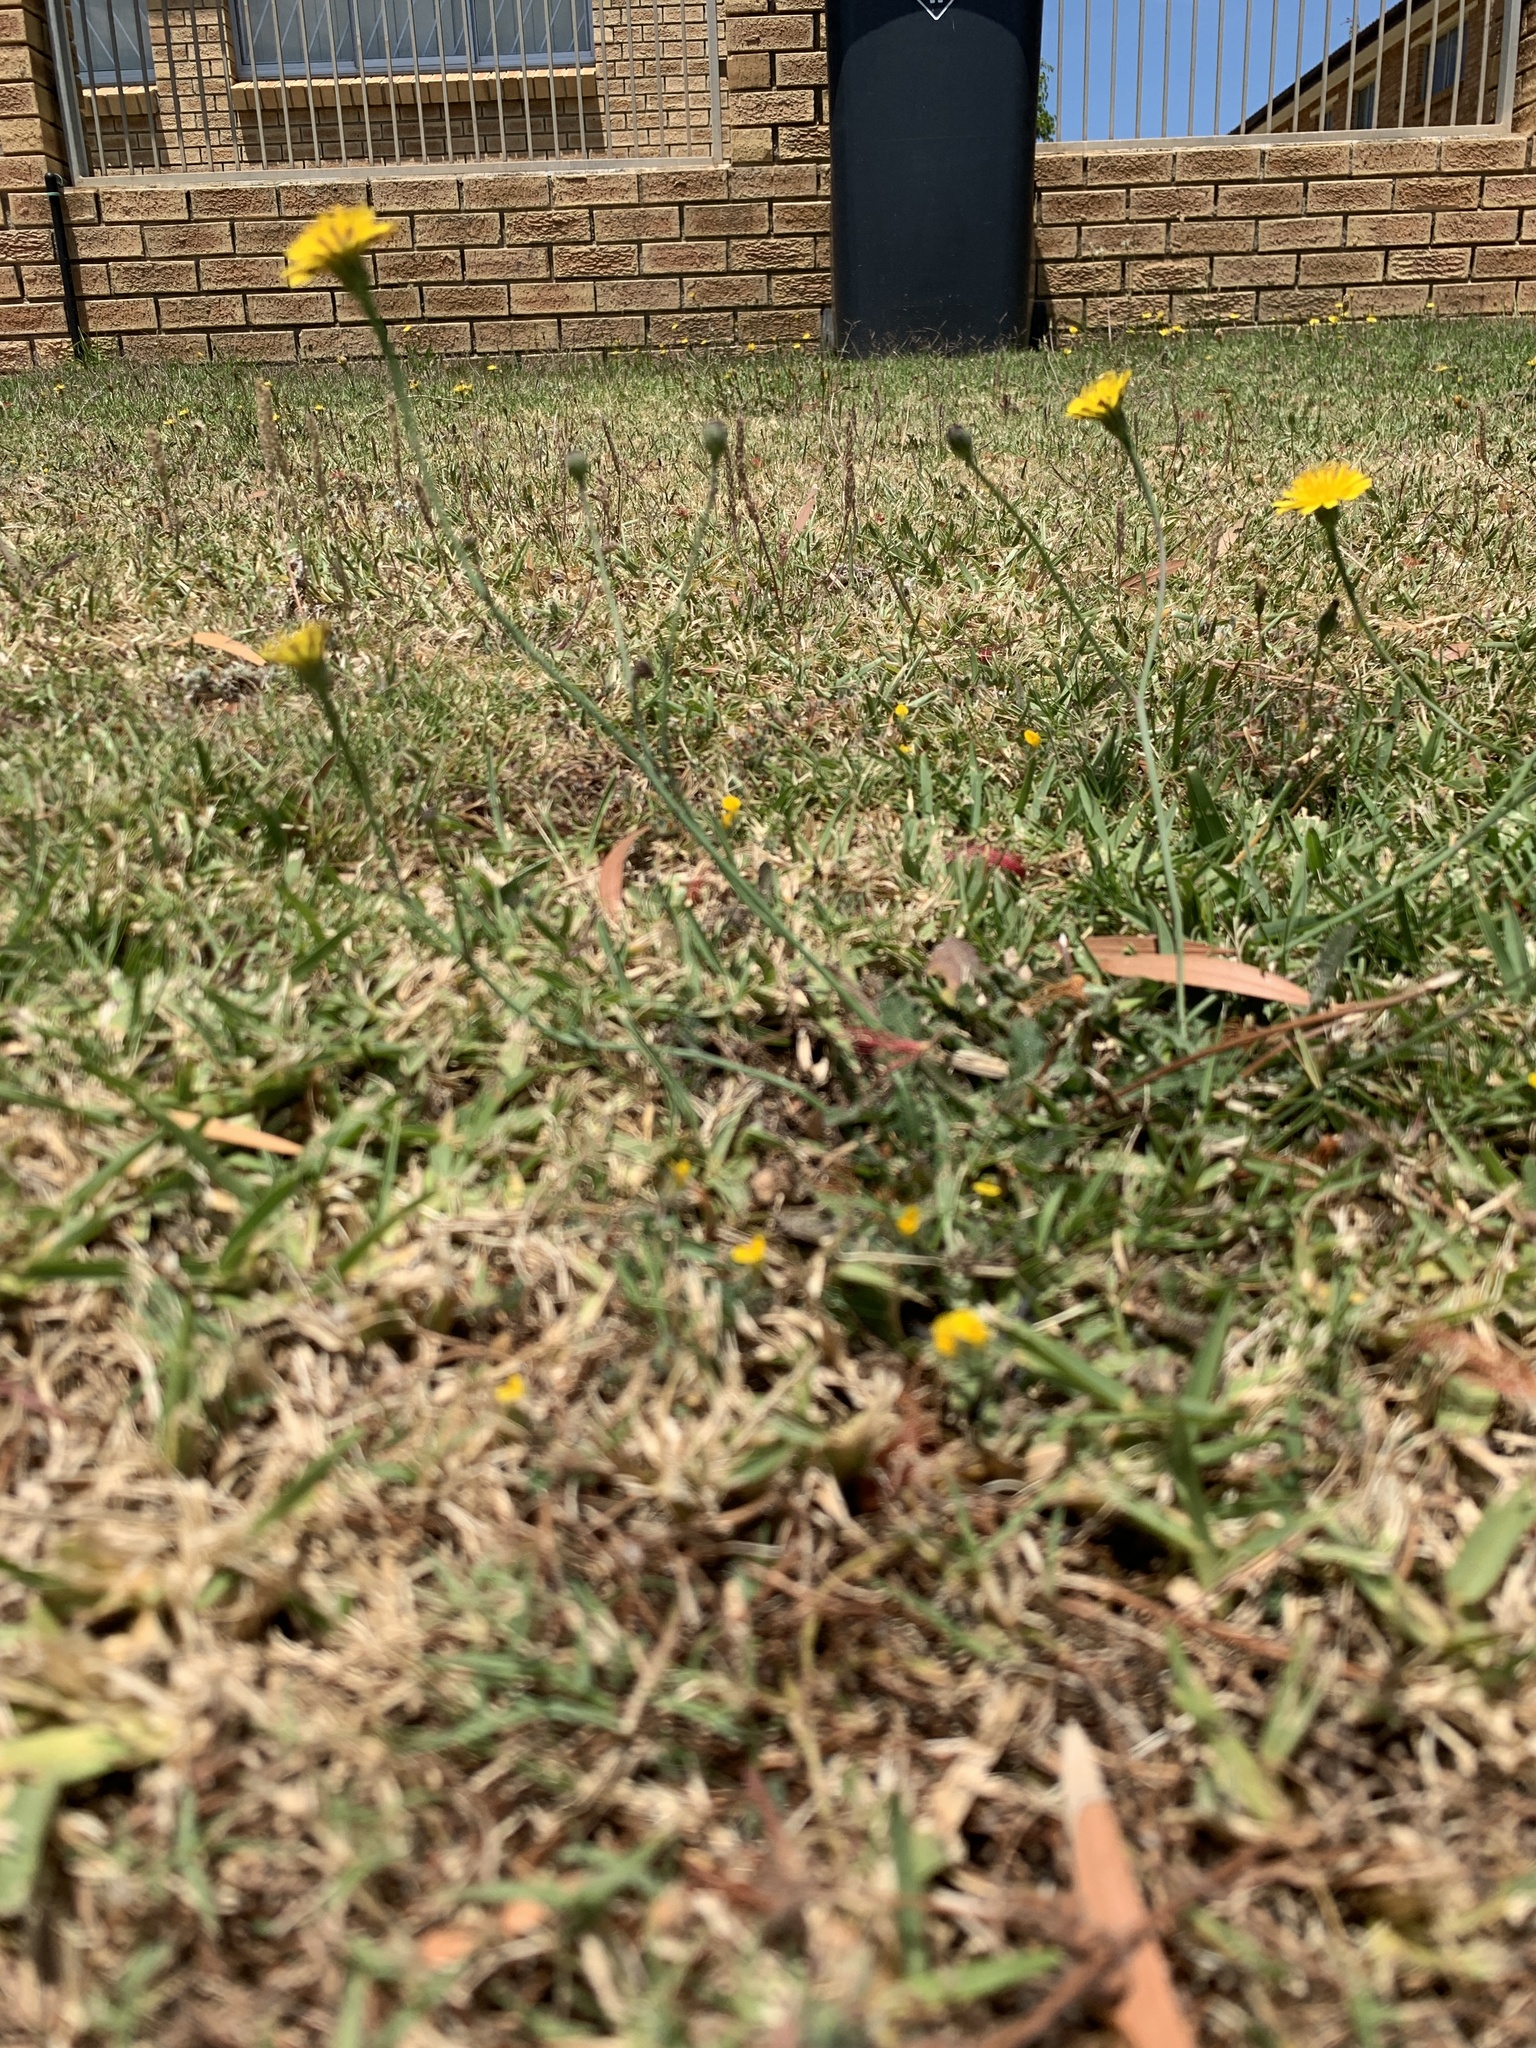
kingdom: Plantae
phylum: Tracheophyta
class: Magnoliopsida
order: Asterales
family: Asteraceae
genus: Hypochaeris
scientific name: Hypochaeris radicata
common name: Flatweed
